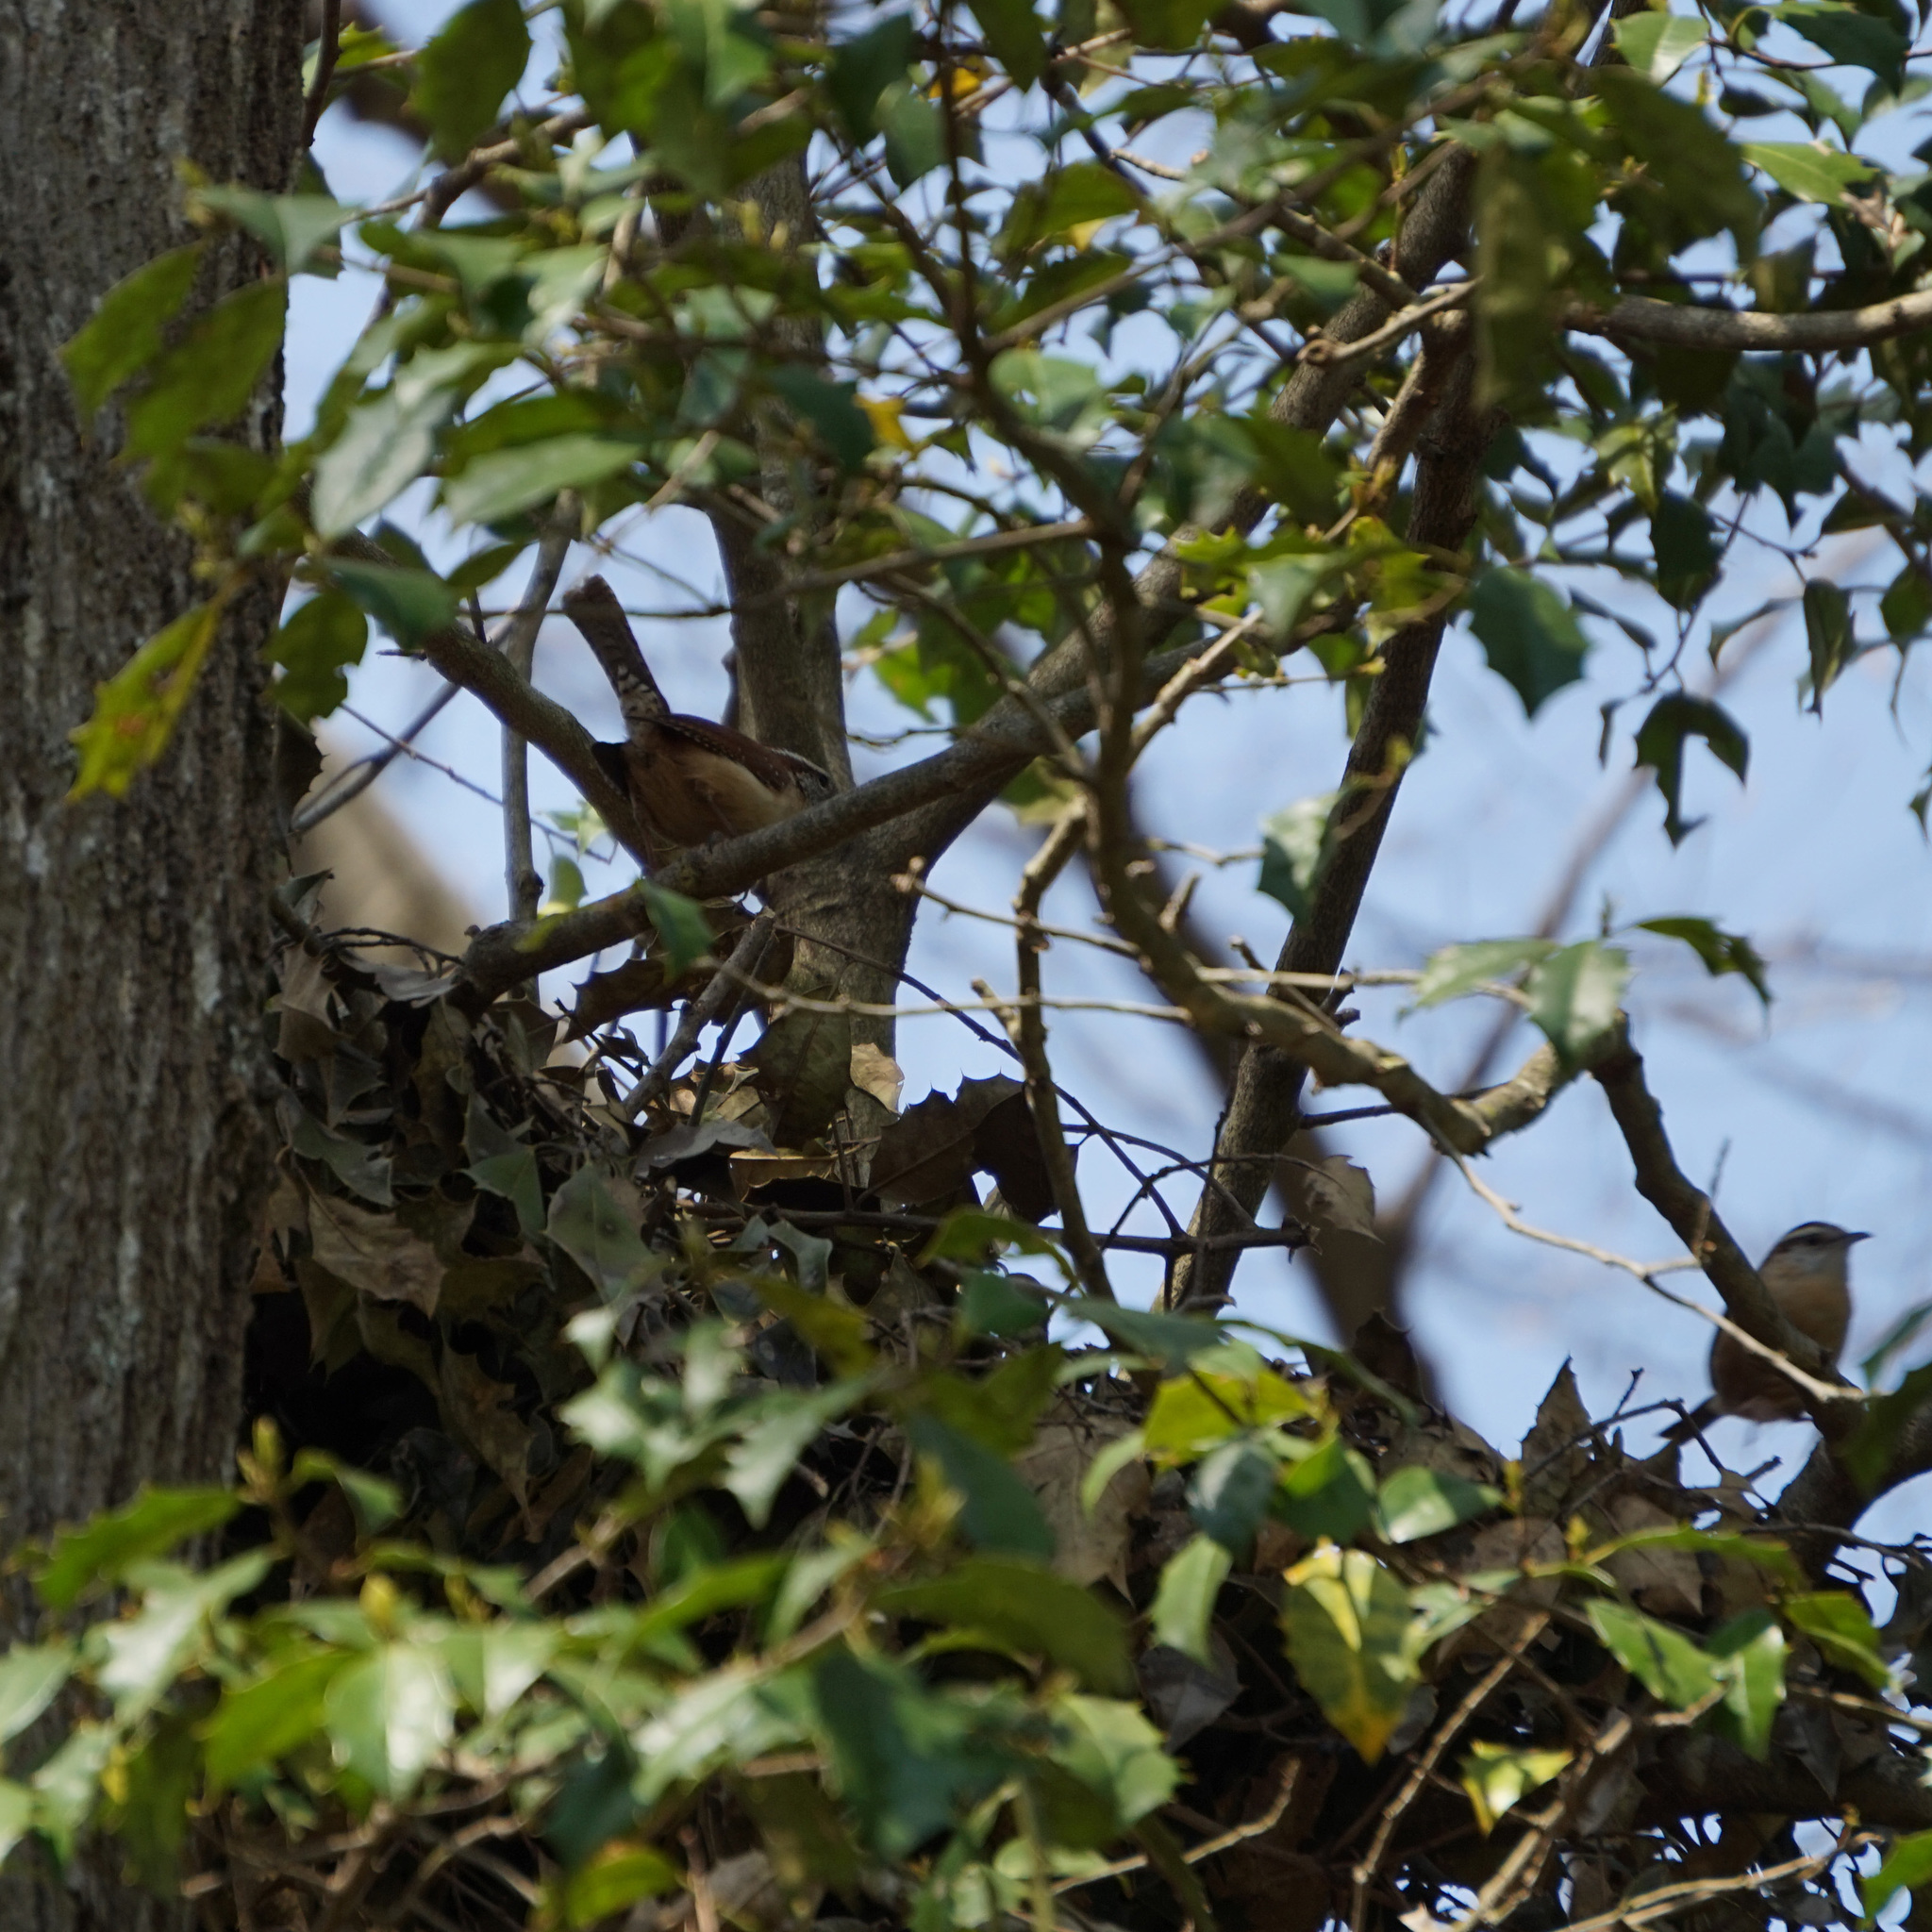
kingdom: Animalia
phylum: Chordata
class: Aves
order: Passeriformes
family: Troglodytidae
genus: Thryothorus
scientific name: Thryothorus ludovicianus
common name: Carolina wren
